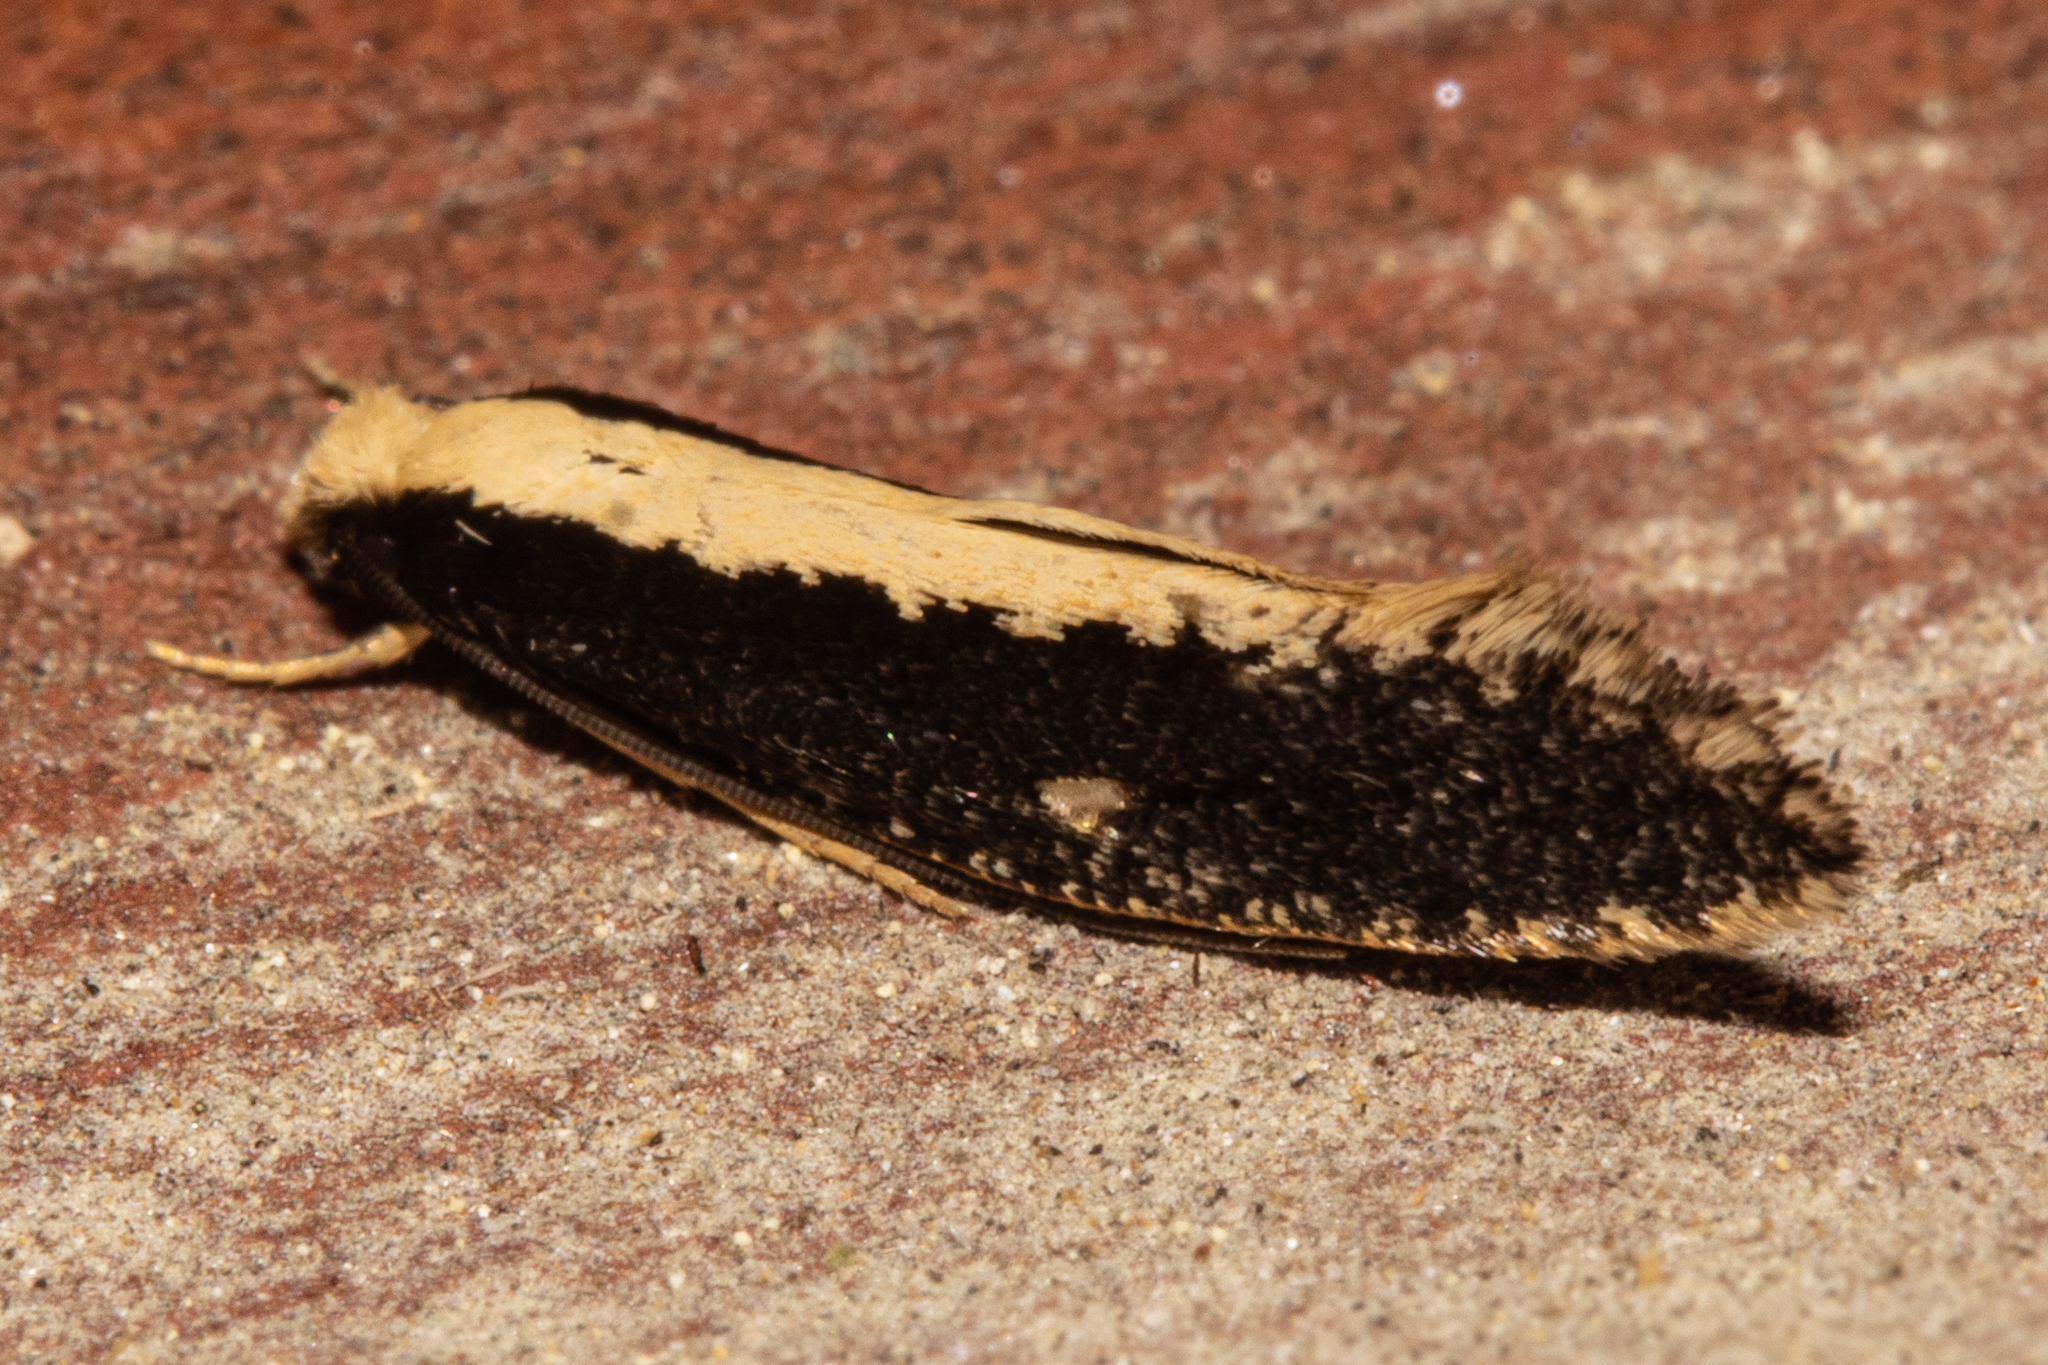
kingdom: Animalia
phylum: Arthropoda
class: Insecta
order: Lepidoptera
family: Tineidae
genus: Monopis
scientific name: Monopis ethelella
